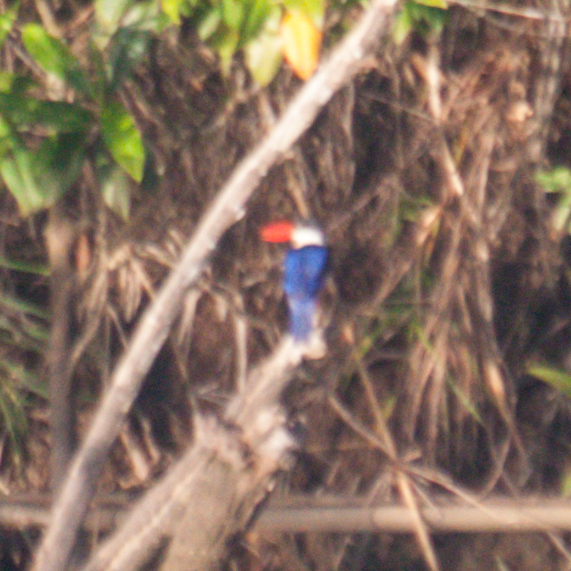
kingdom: Animalia
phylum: Chordata
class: Aves
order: Coraciiformes
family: Alcedinidae
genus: Halcyon
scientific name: Halcyon pileata
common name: Black-capped kingfisher
